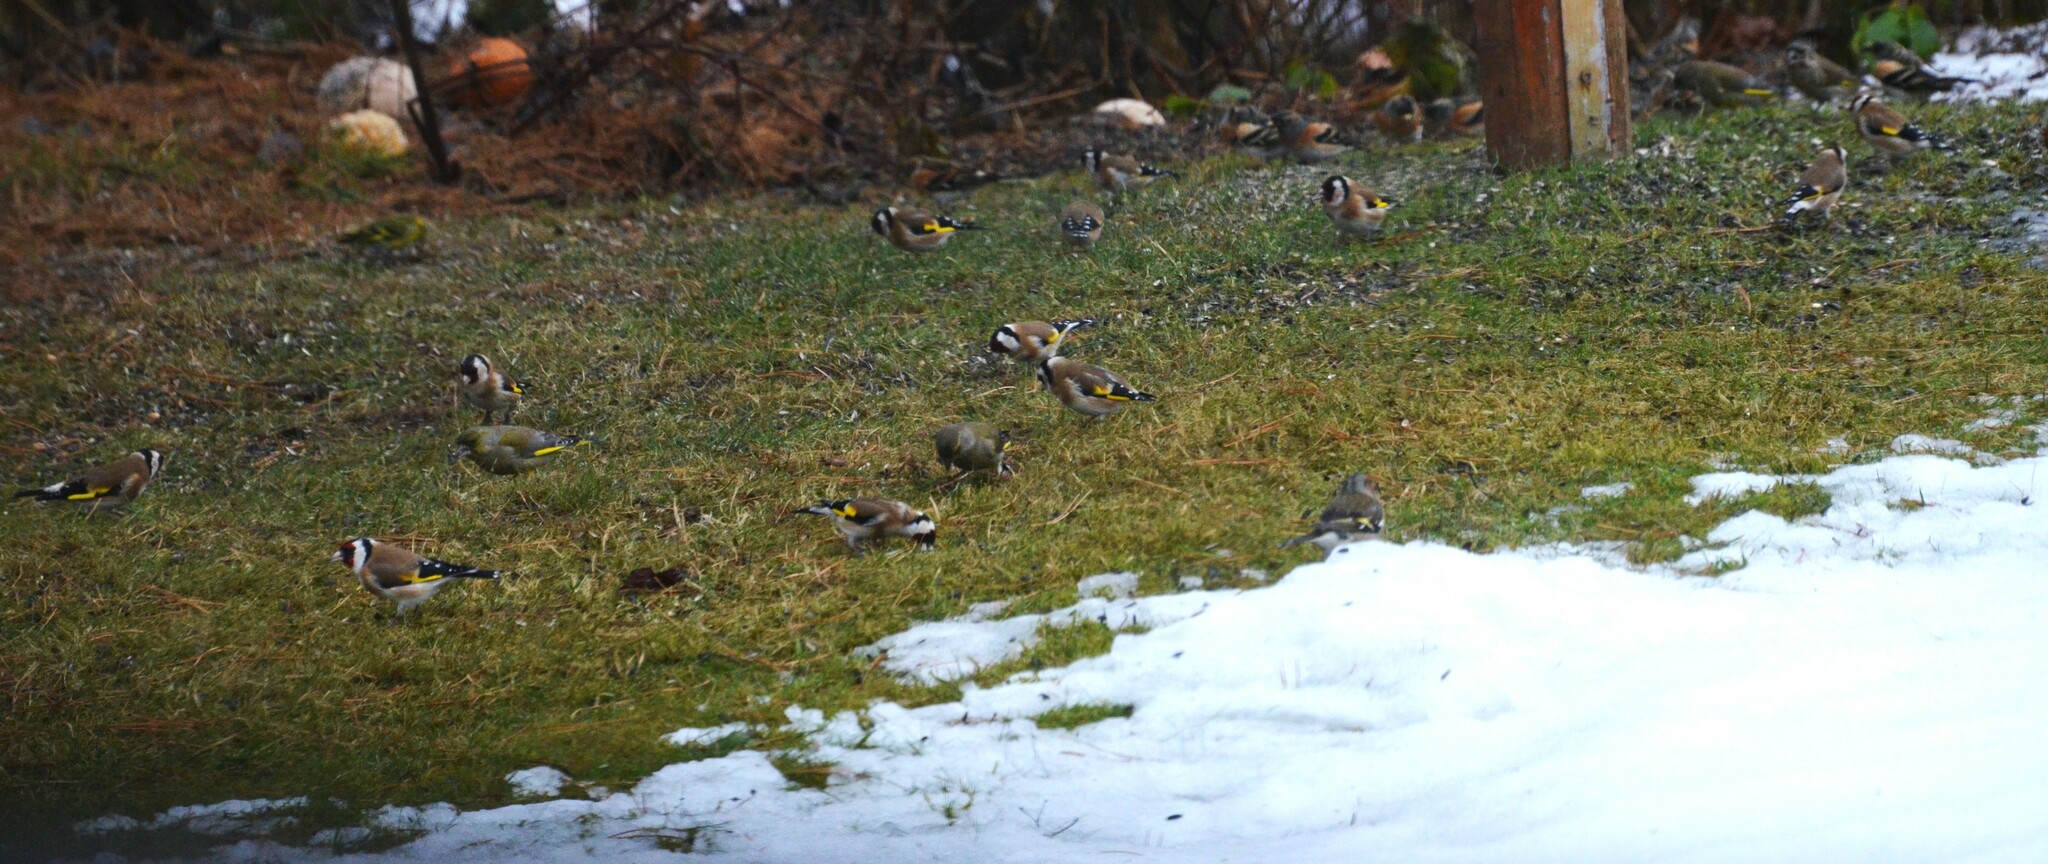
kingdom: Animalia
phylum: Chordata
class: Aves
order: Passeriformes
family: Fringillidae
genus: Carduelis
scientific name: Carduelis carduelis
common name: European goldfinch
